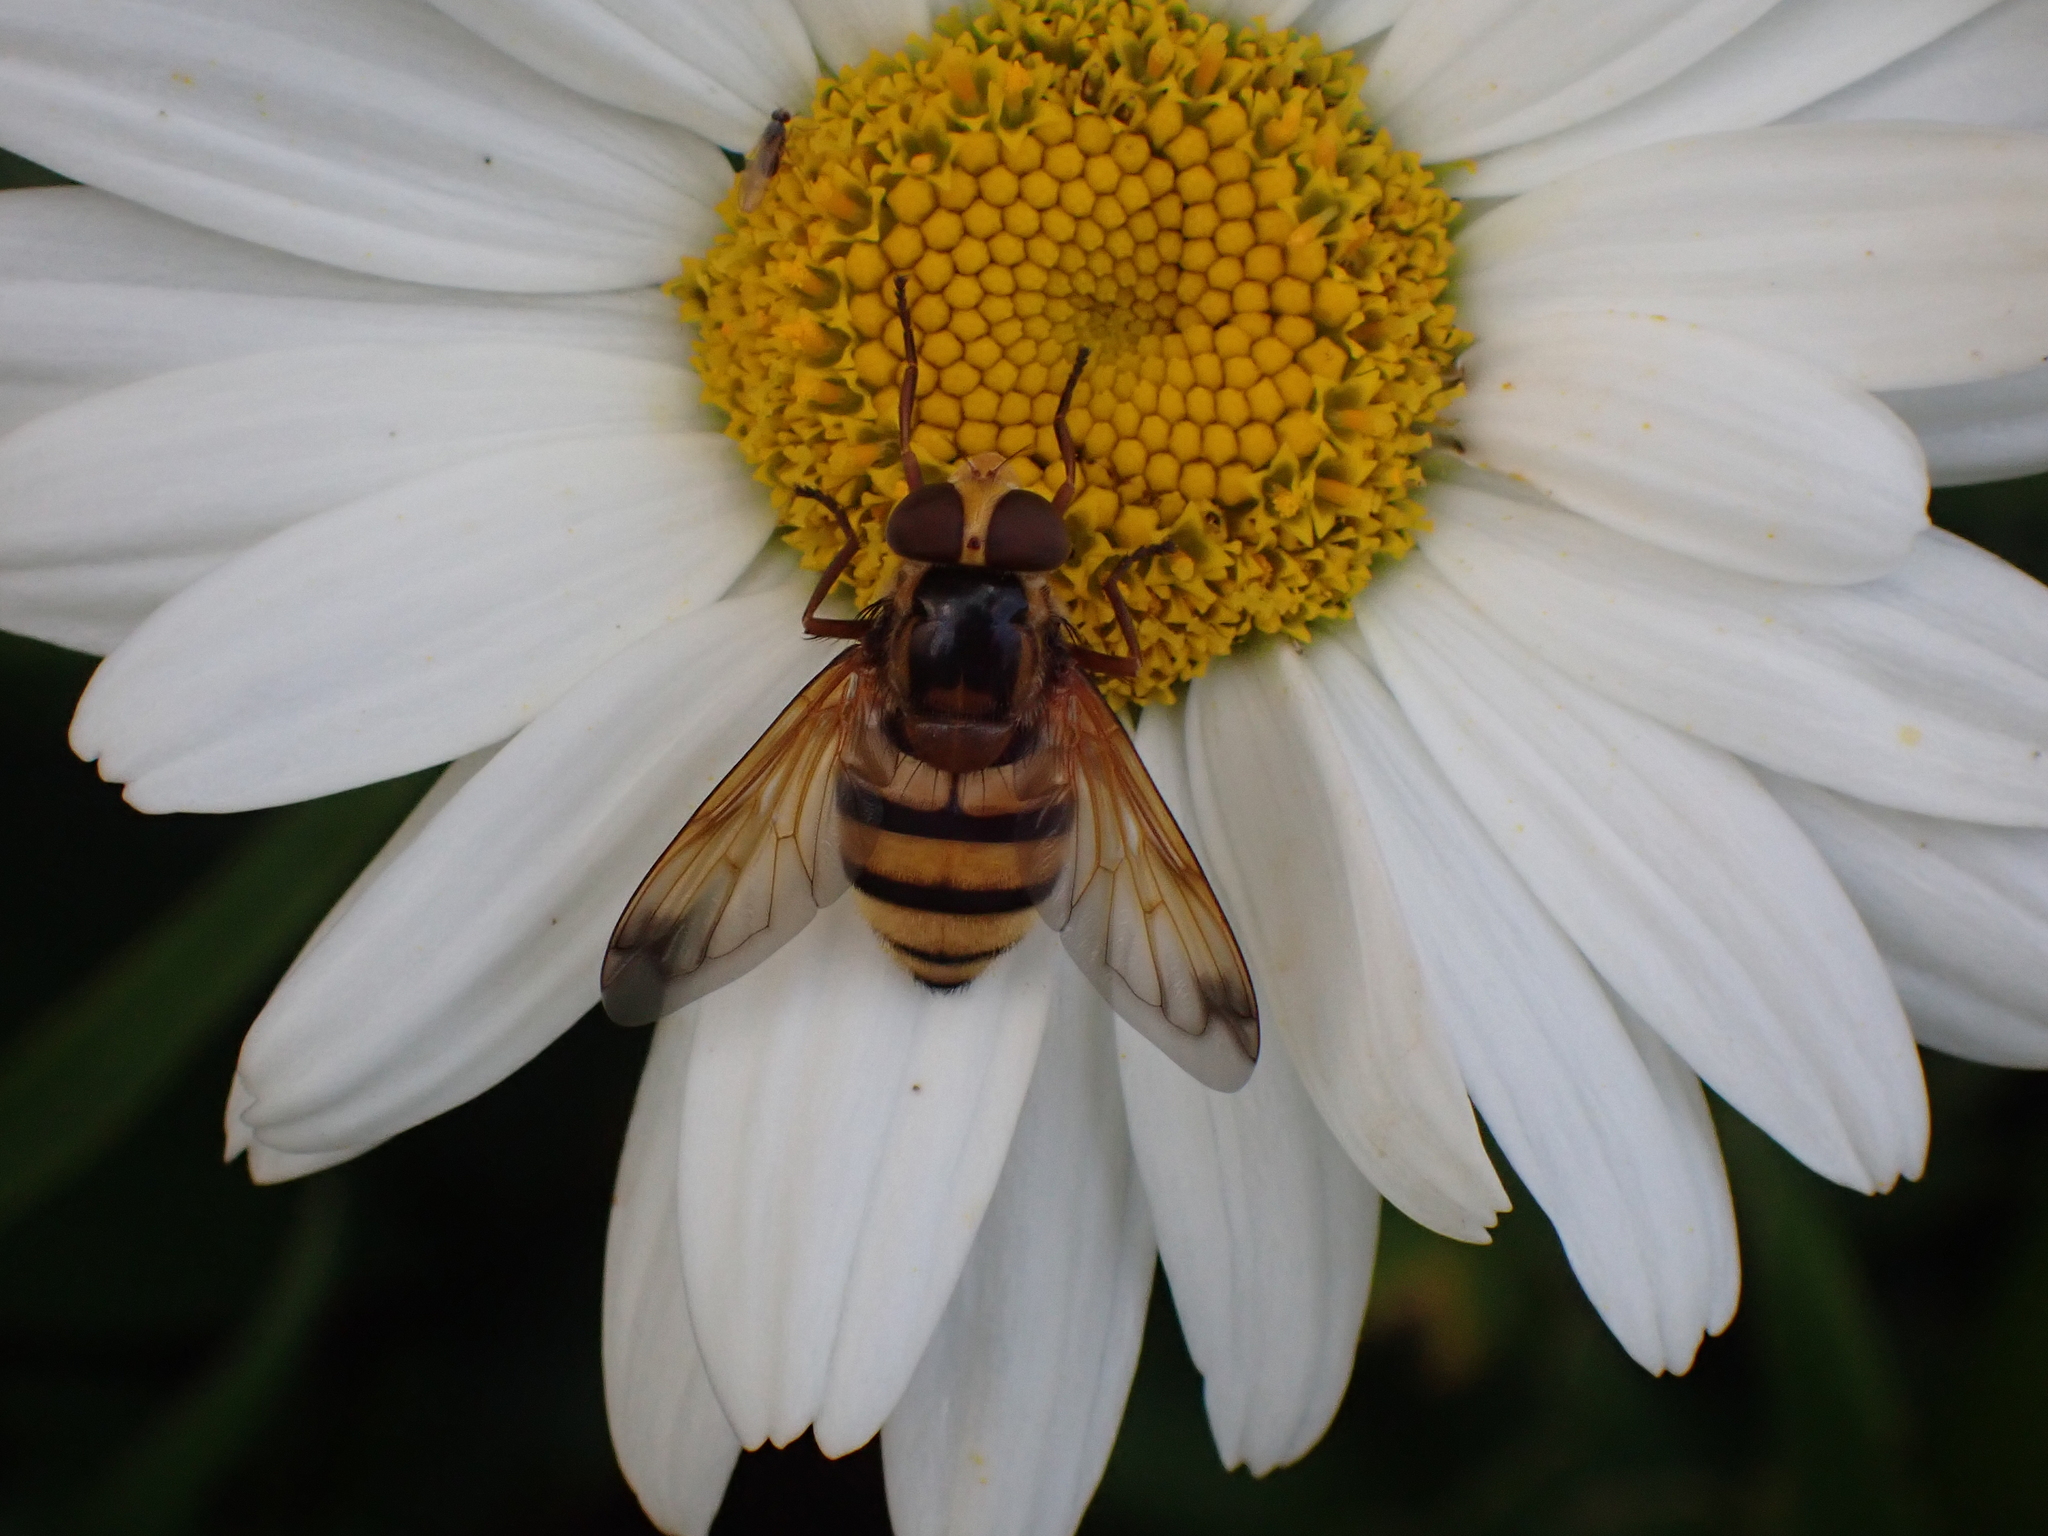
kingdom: Animalia
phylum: Arthropoda
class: Insecta
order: Diptera
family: Syrphidae
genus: Volucella
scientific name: Volucella inanis
